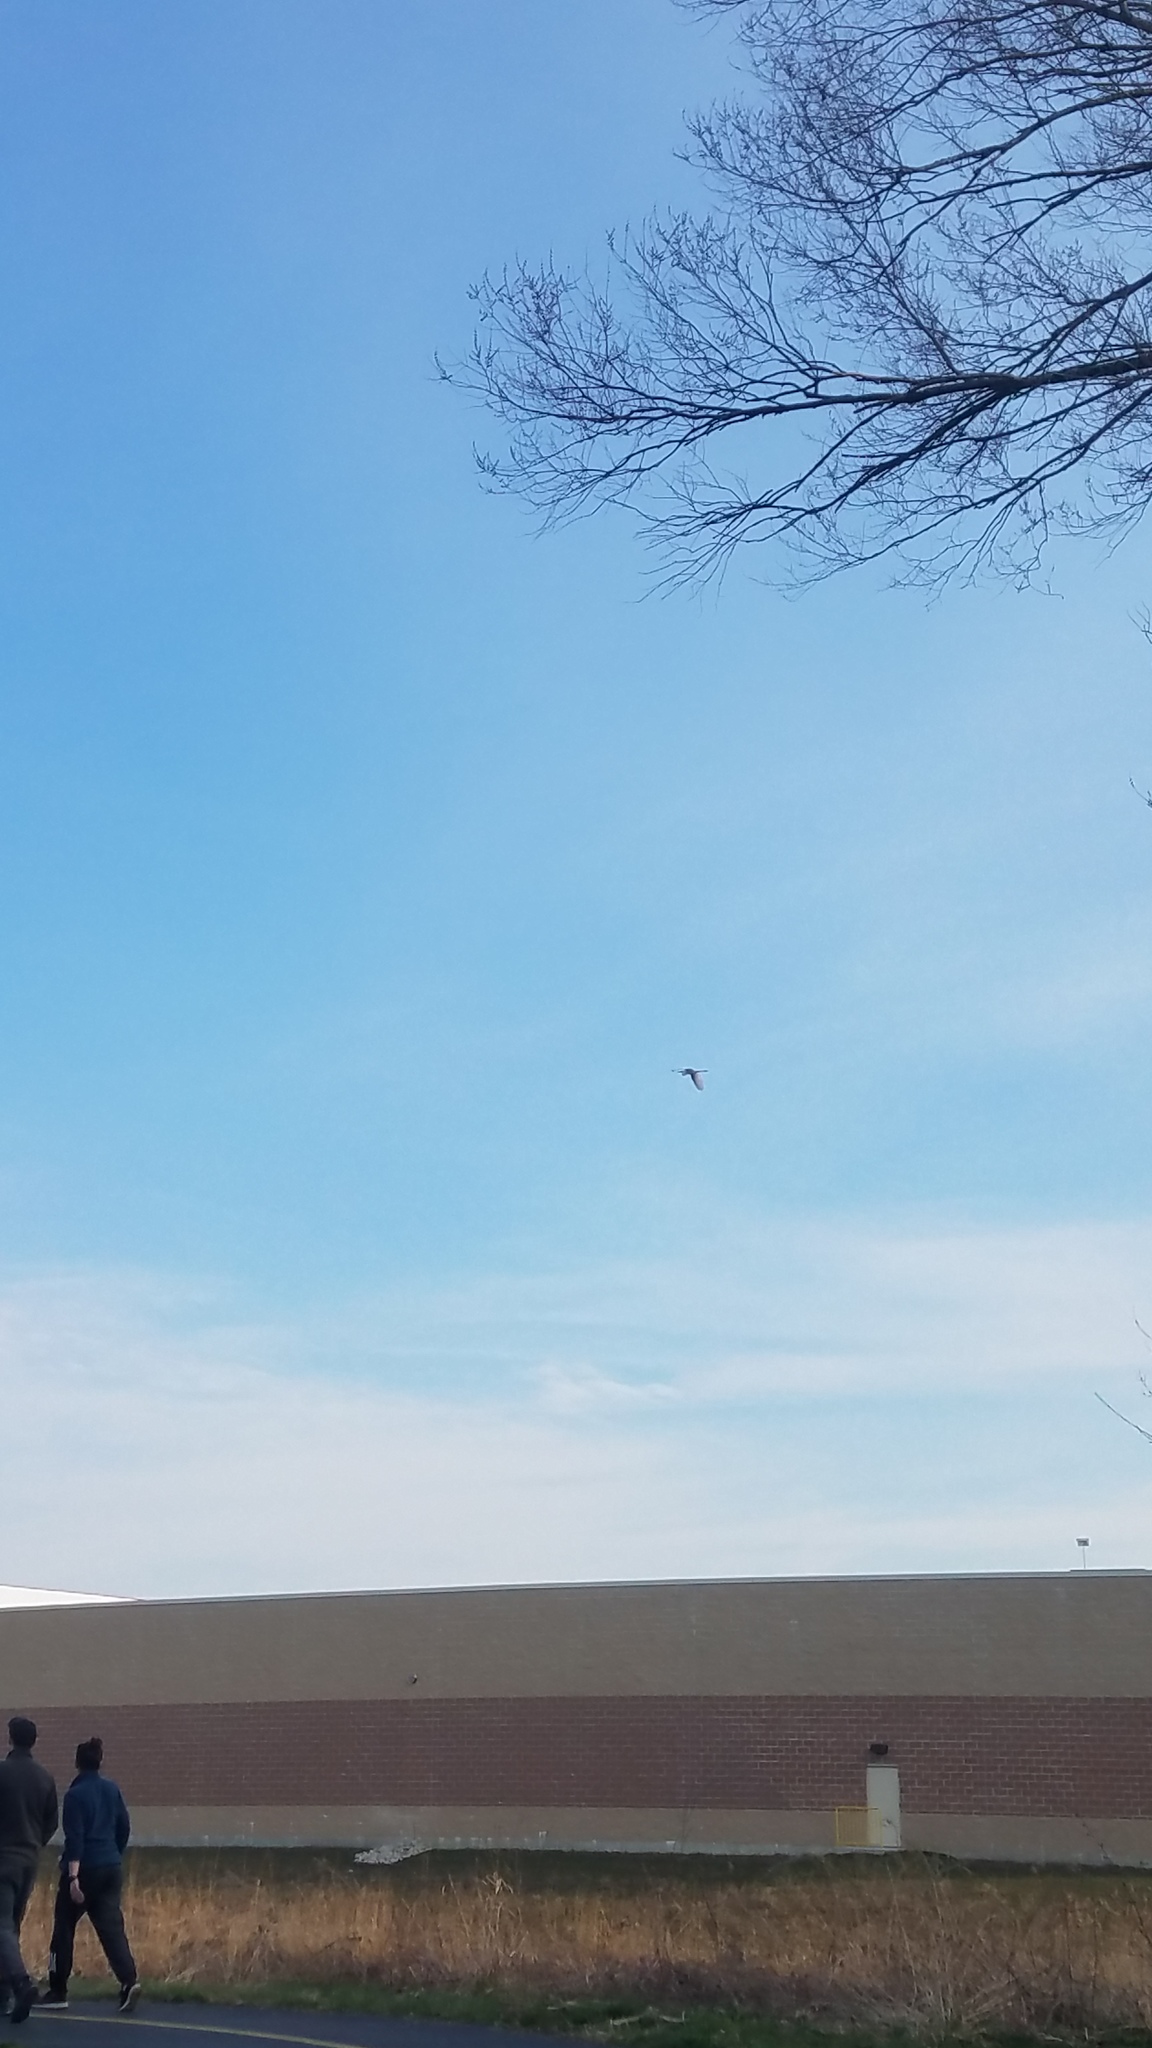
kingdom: Animalia
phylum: Chordata
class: Aves
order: Pelecaniformes
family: Ardeidae
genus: Ardea
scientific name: Ardea alba
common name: Great egret
